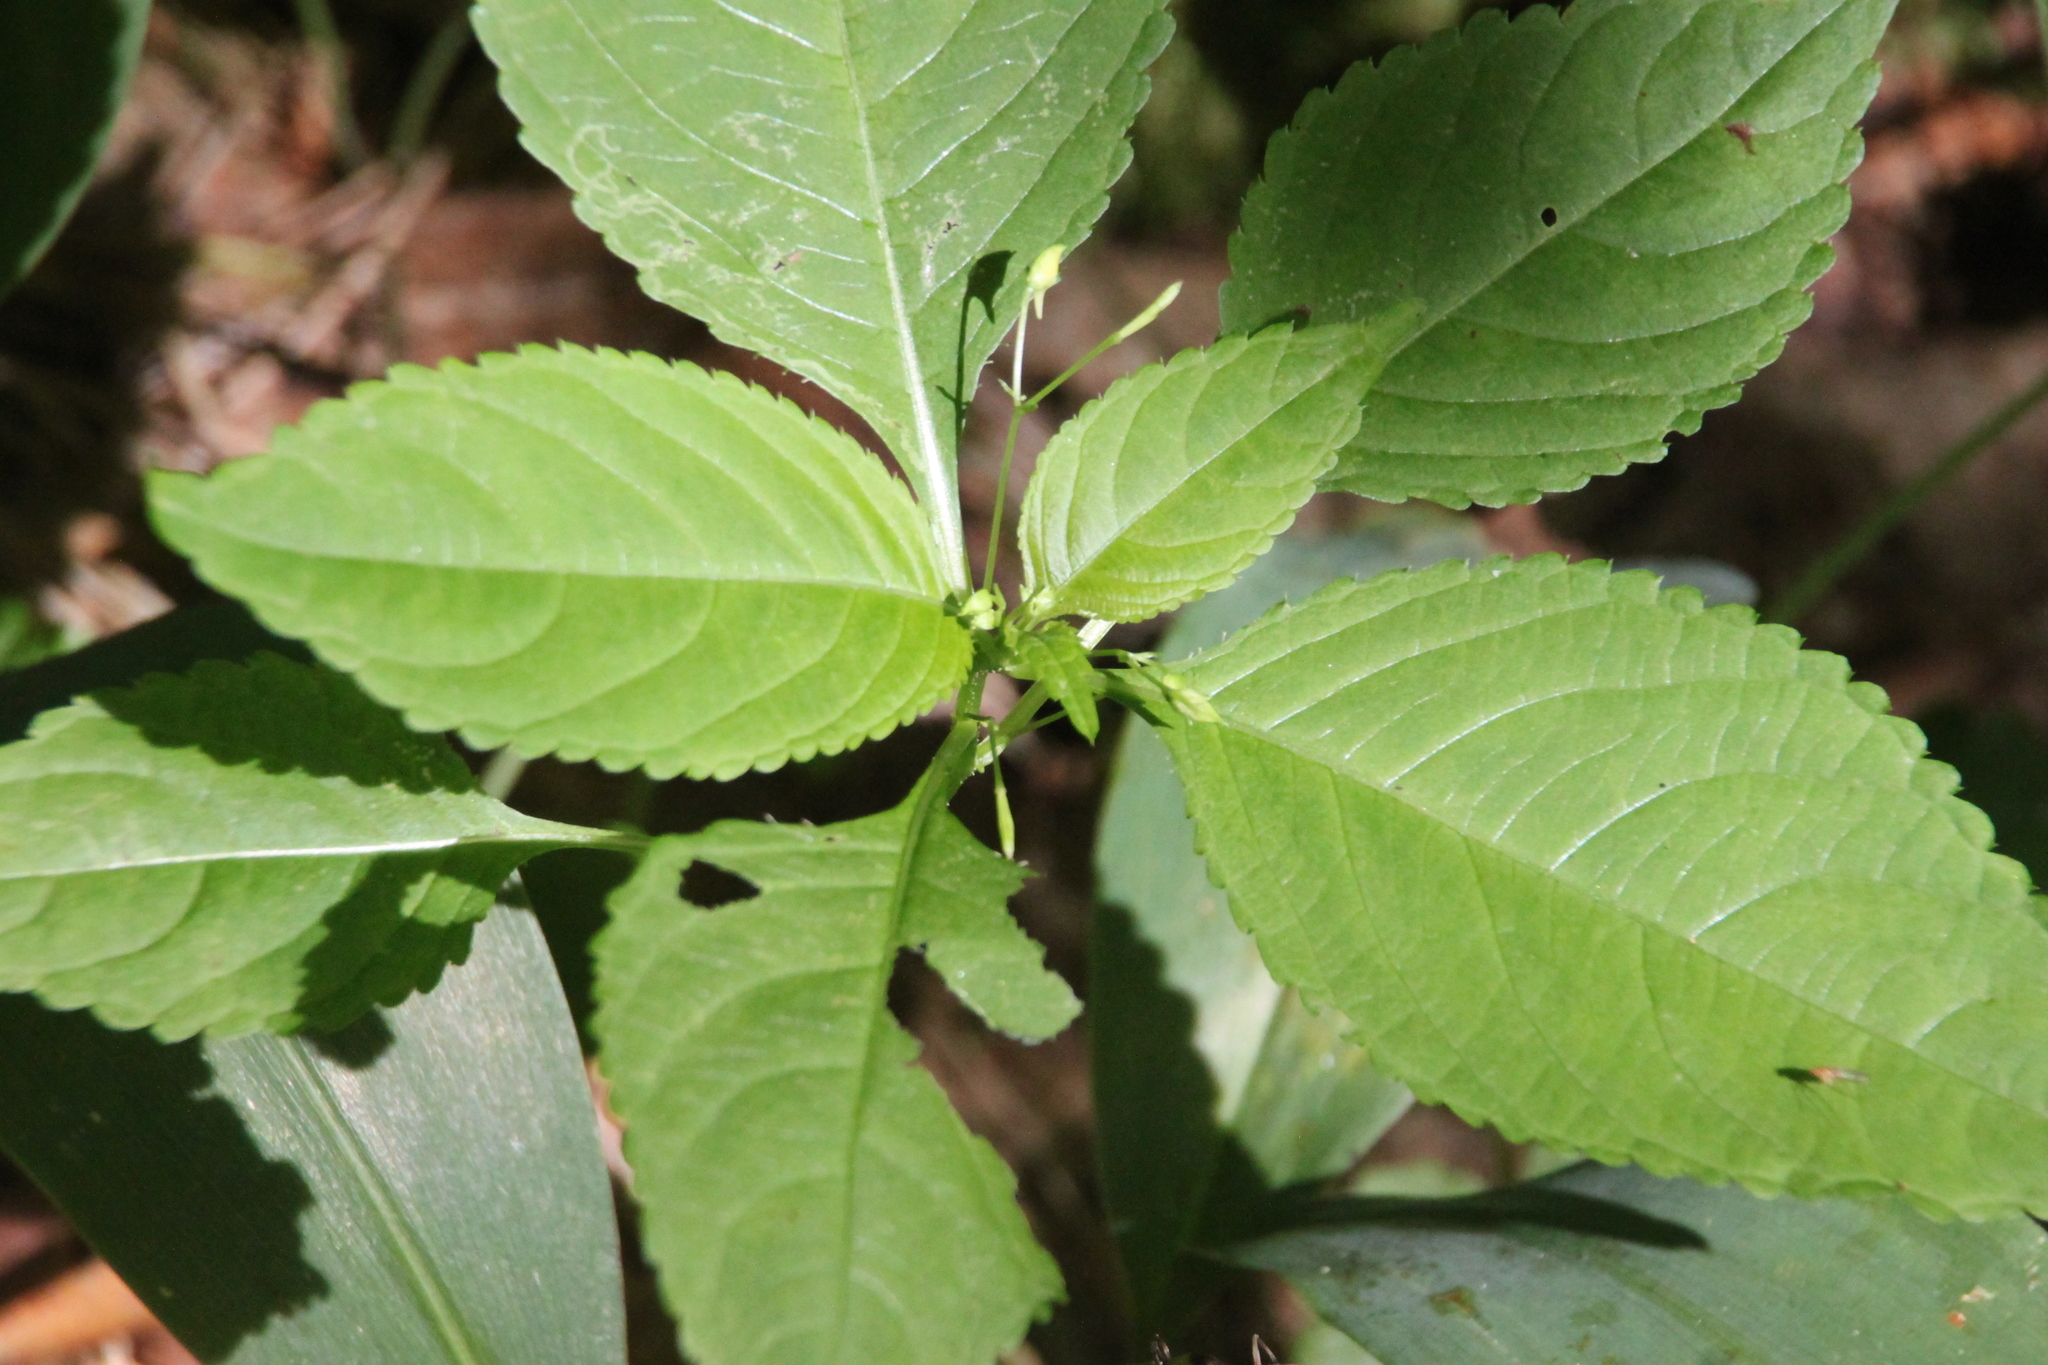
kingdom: Plantae
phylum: Tracheophyta
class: Magnoliopsida
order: Ericales
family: Balsaminaceae
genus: Impatiens
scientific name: Impatiens parviflora
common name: Small balsam
